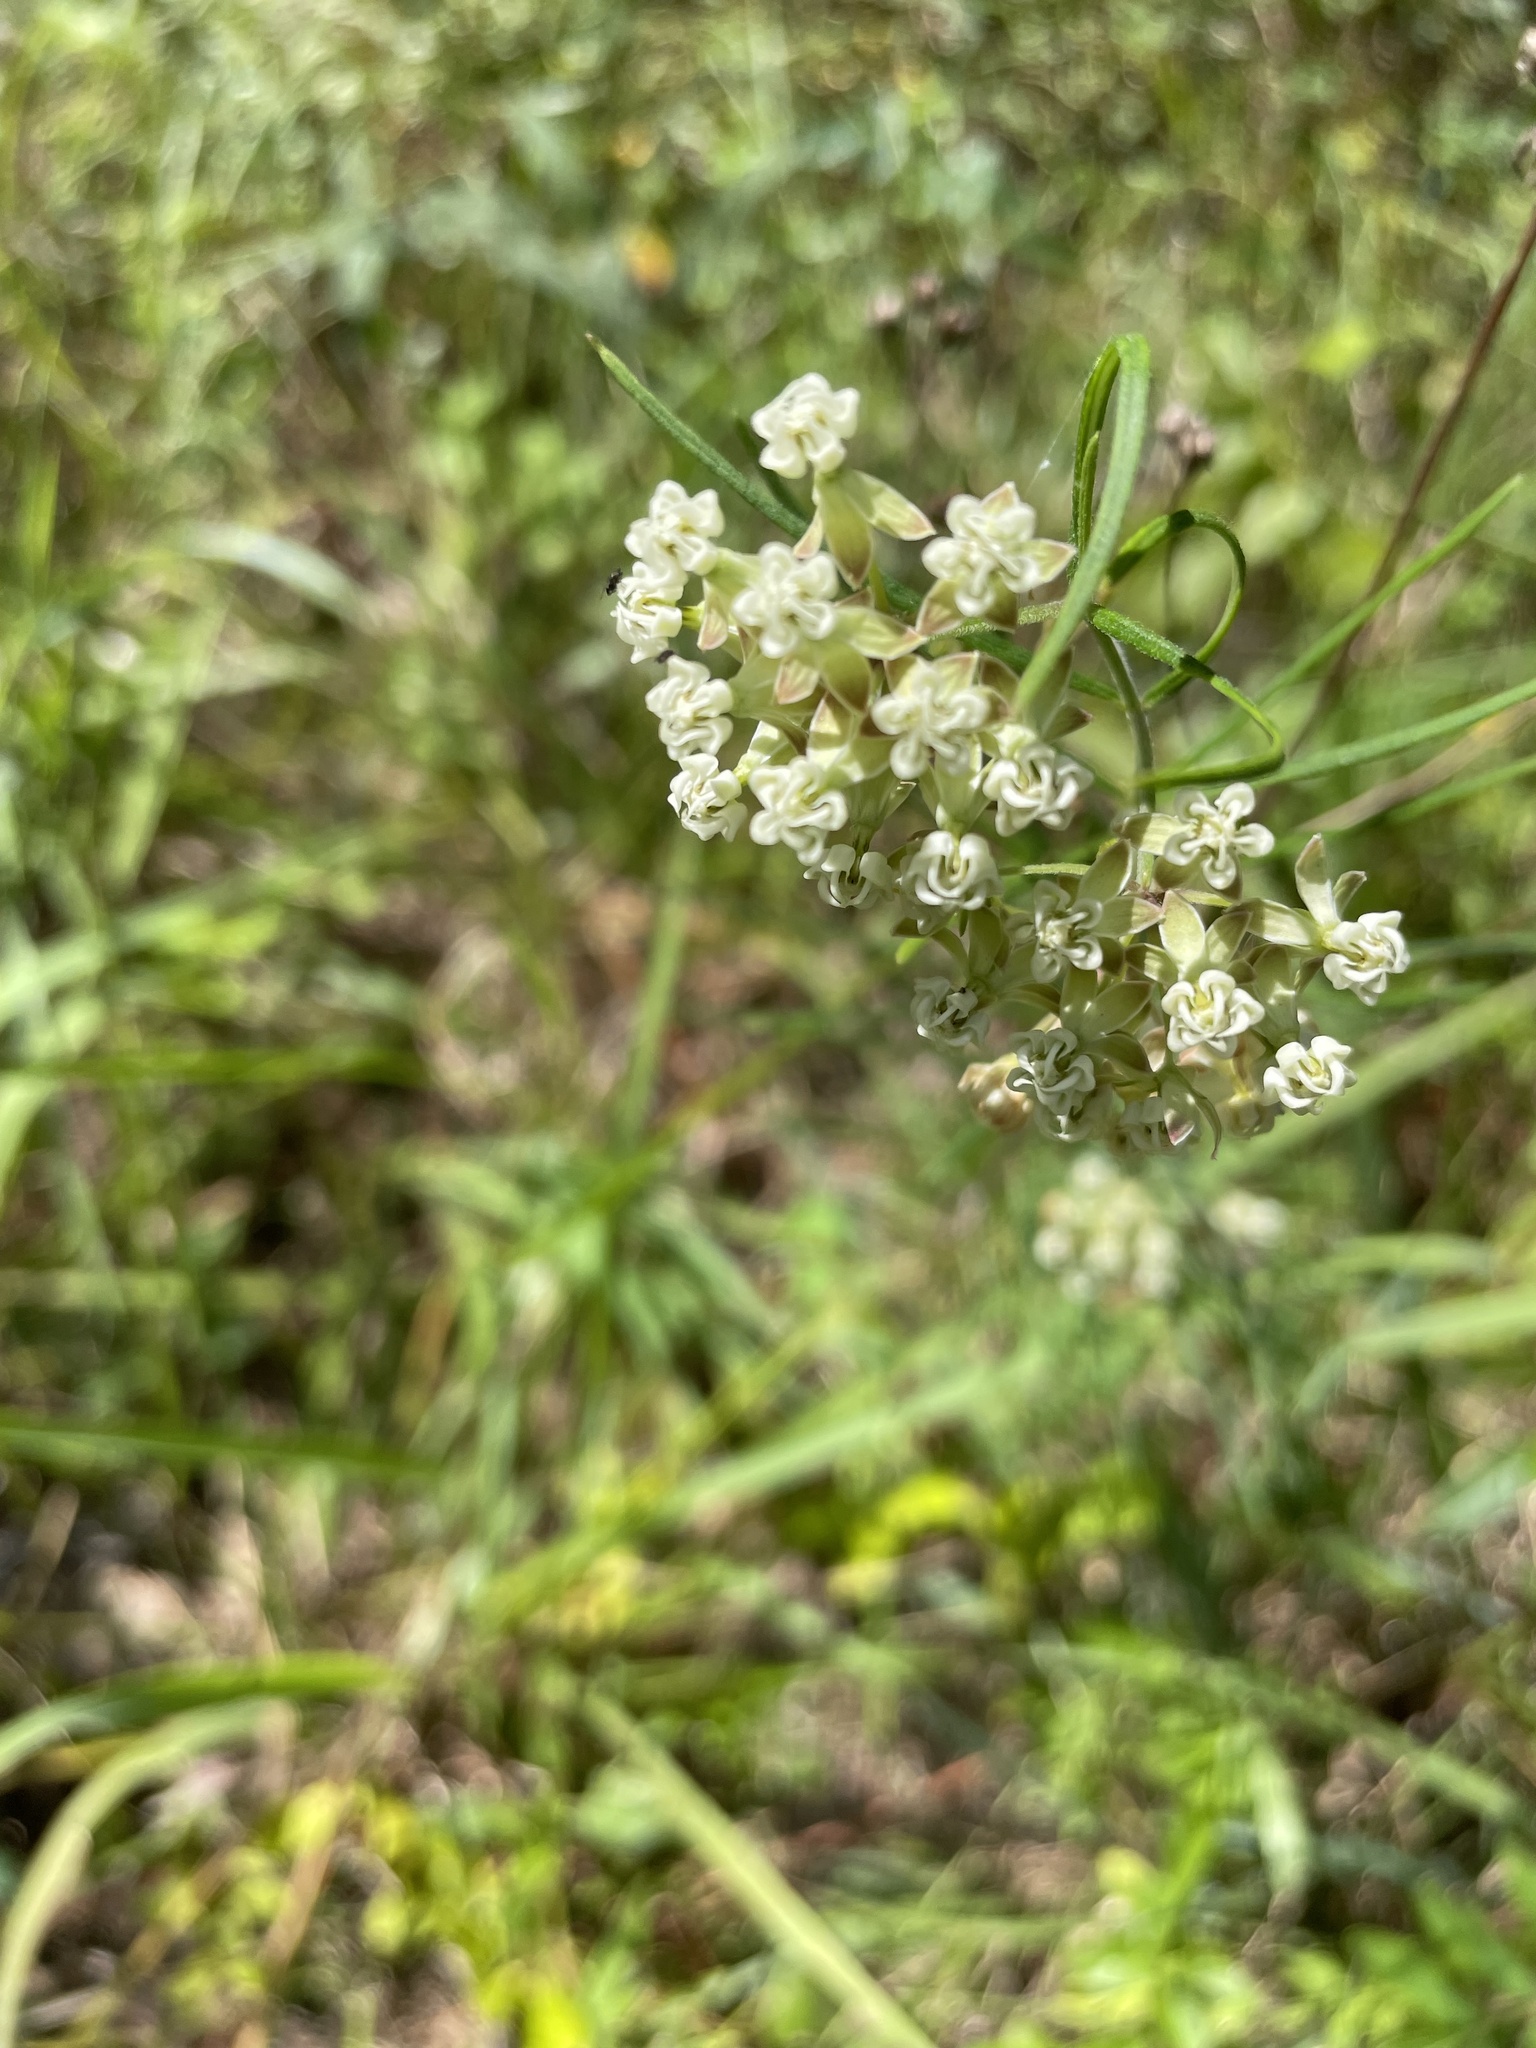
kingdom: Plantae
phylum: Tracheophyta
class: Magnoliopsida
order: Gentianales
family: Apocynaceae
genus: Asclepias
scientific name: Asclepias verticillata
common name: Eastern whorled milkweed
